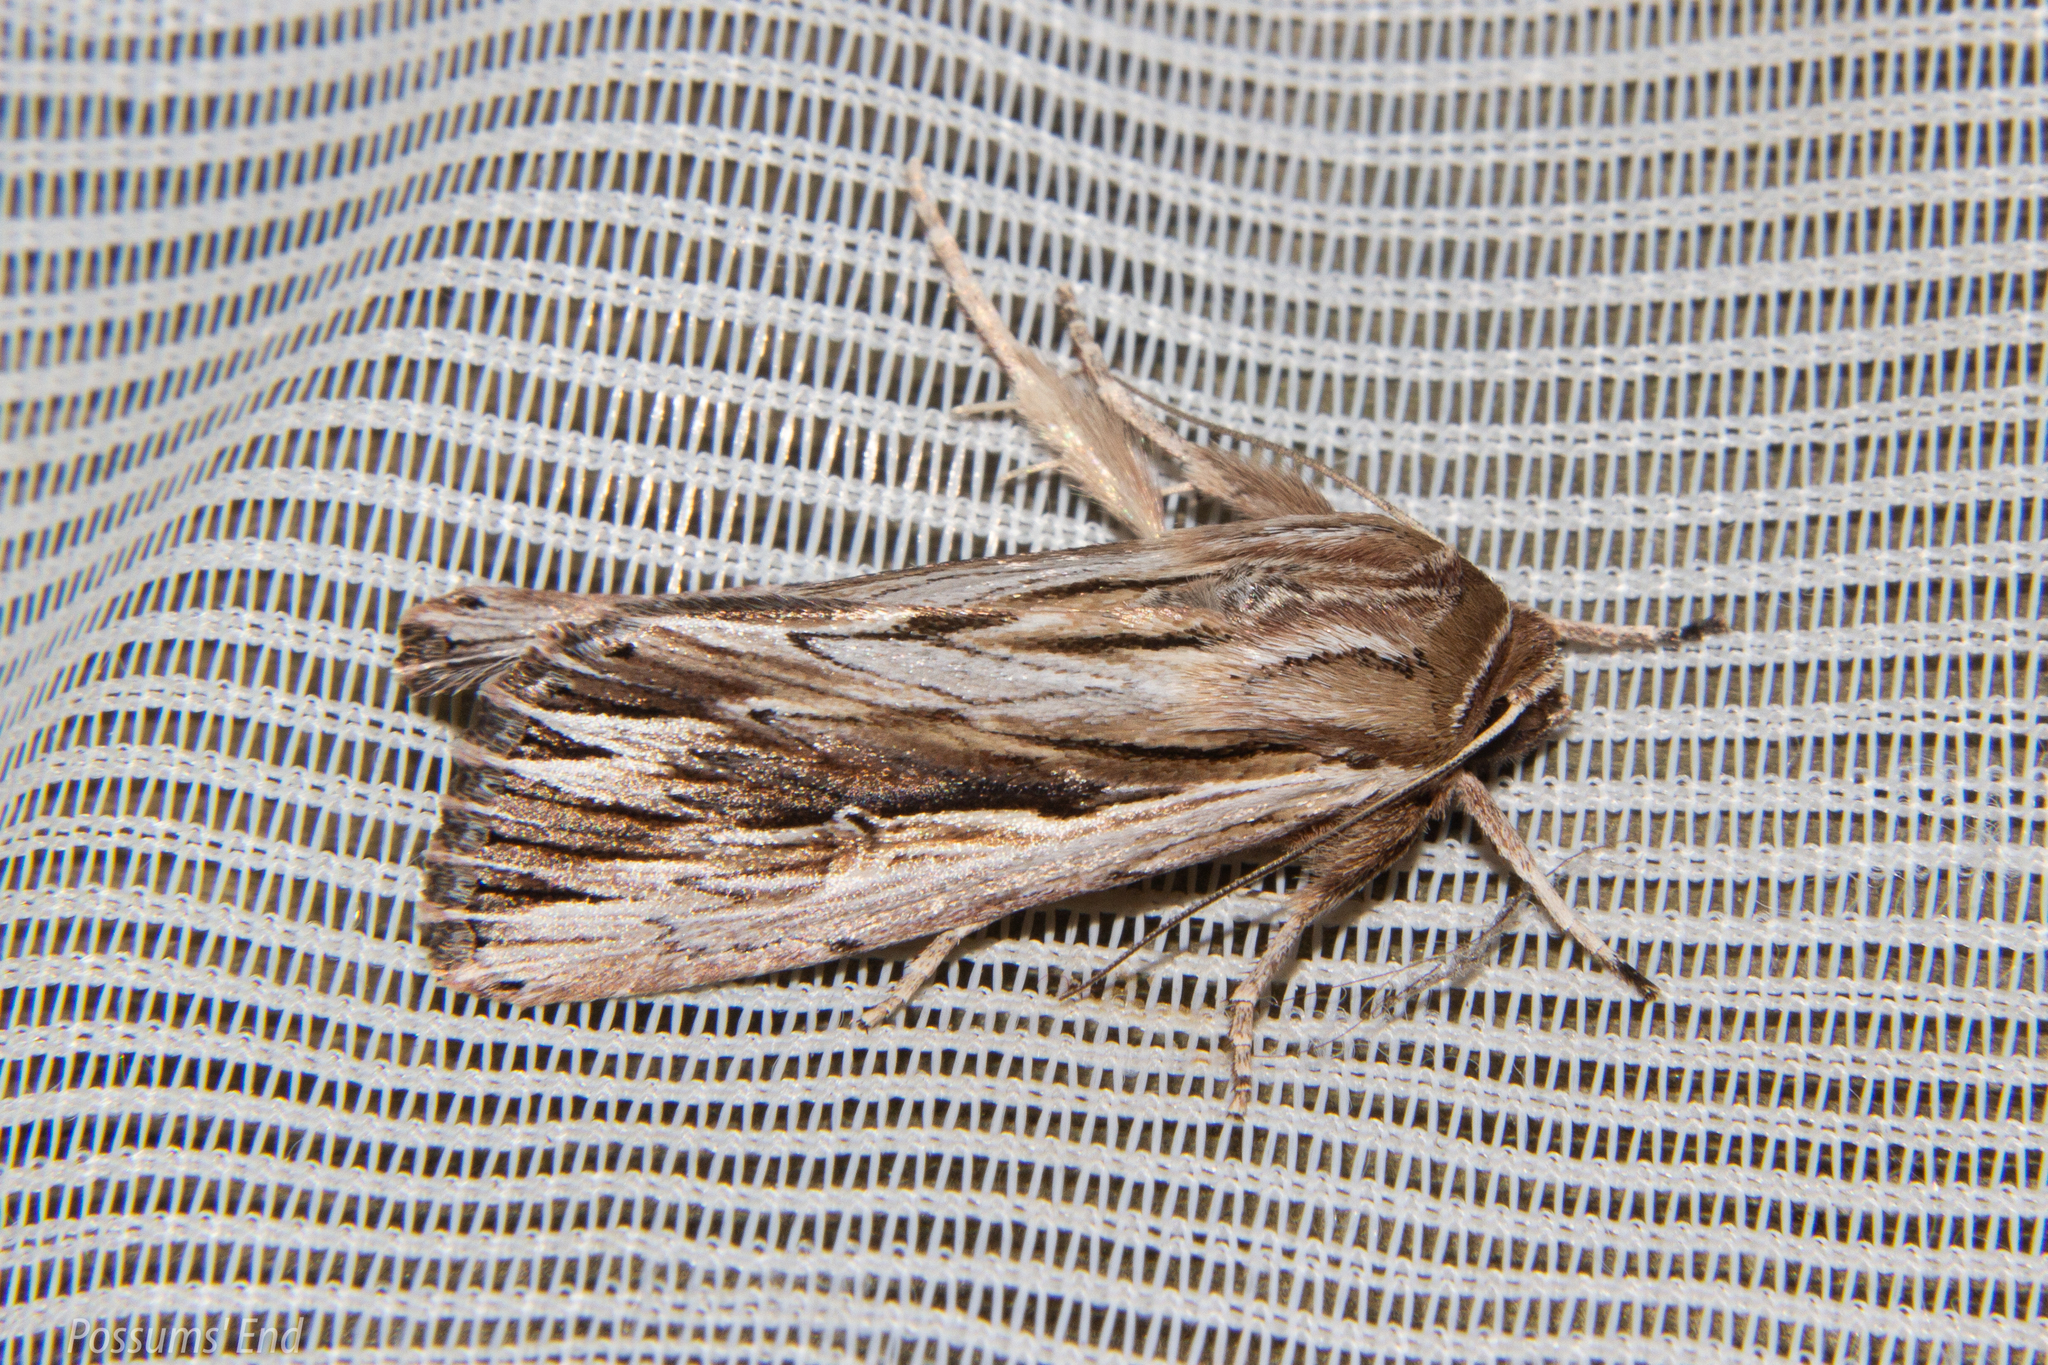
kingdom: Animalia
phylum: Arthropoda
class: Insecta
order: Lepidoptera
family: Noctuidae
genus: Persectania
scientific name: Persectania aversa
